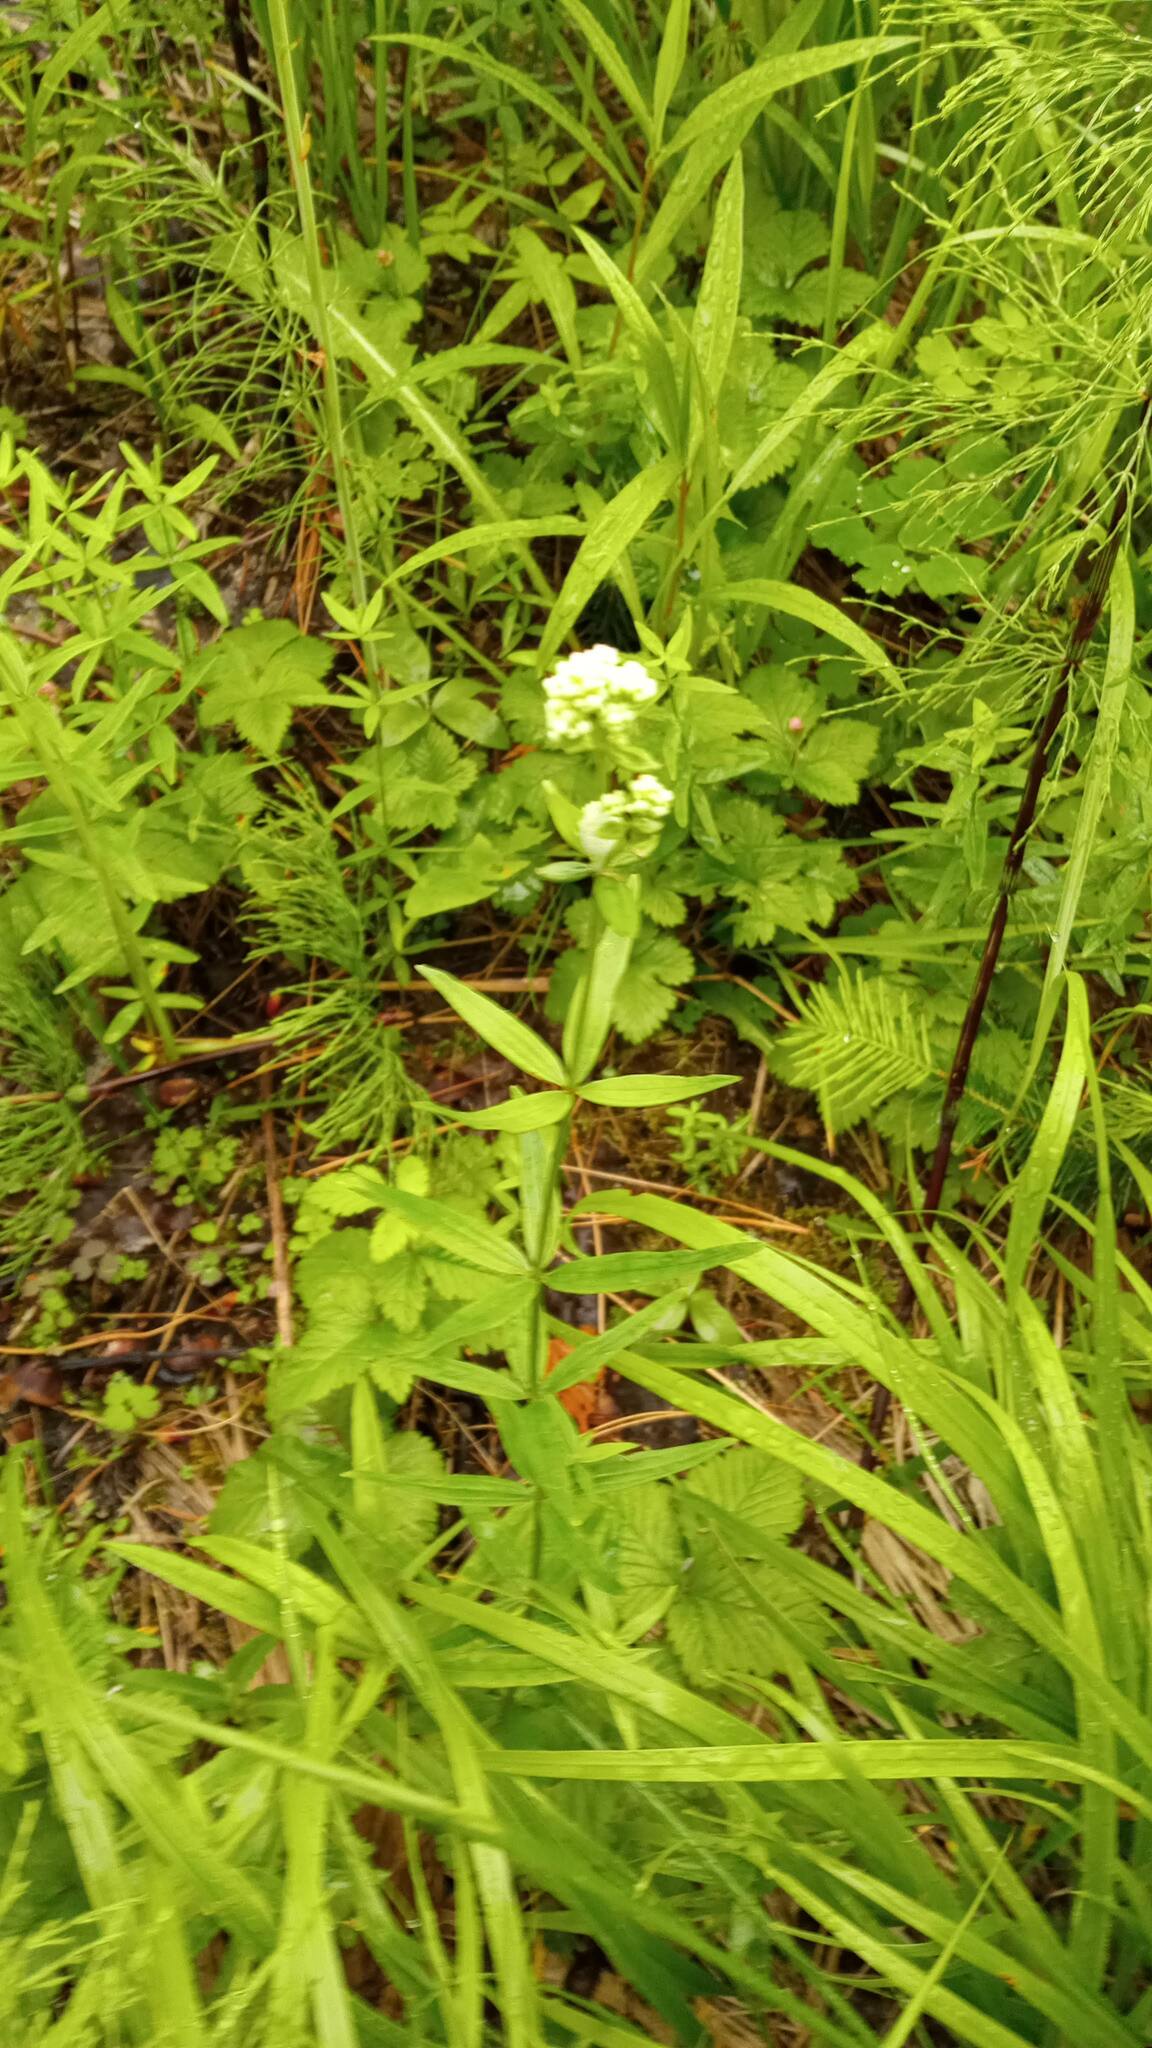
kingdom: Plantae
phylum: Tracheophyta
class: Magnoliopsida
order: Gentianales
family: Rubiaceae
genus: Galium
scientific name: Galium boreale
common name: Northern bedstraw
